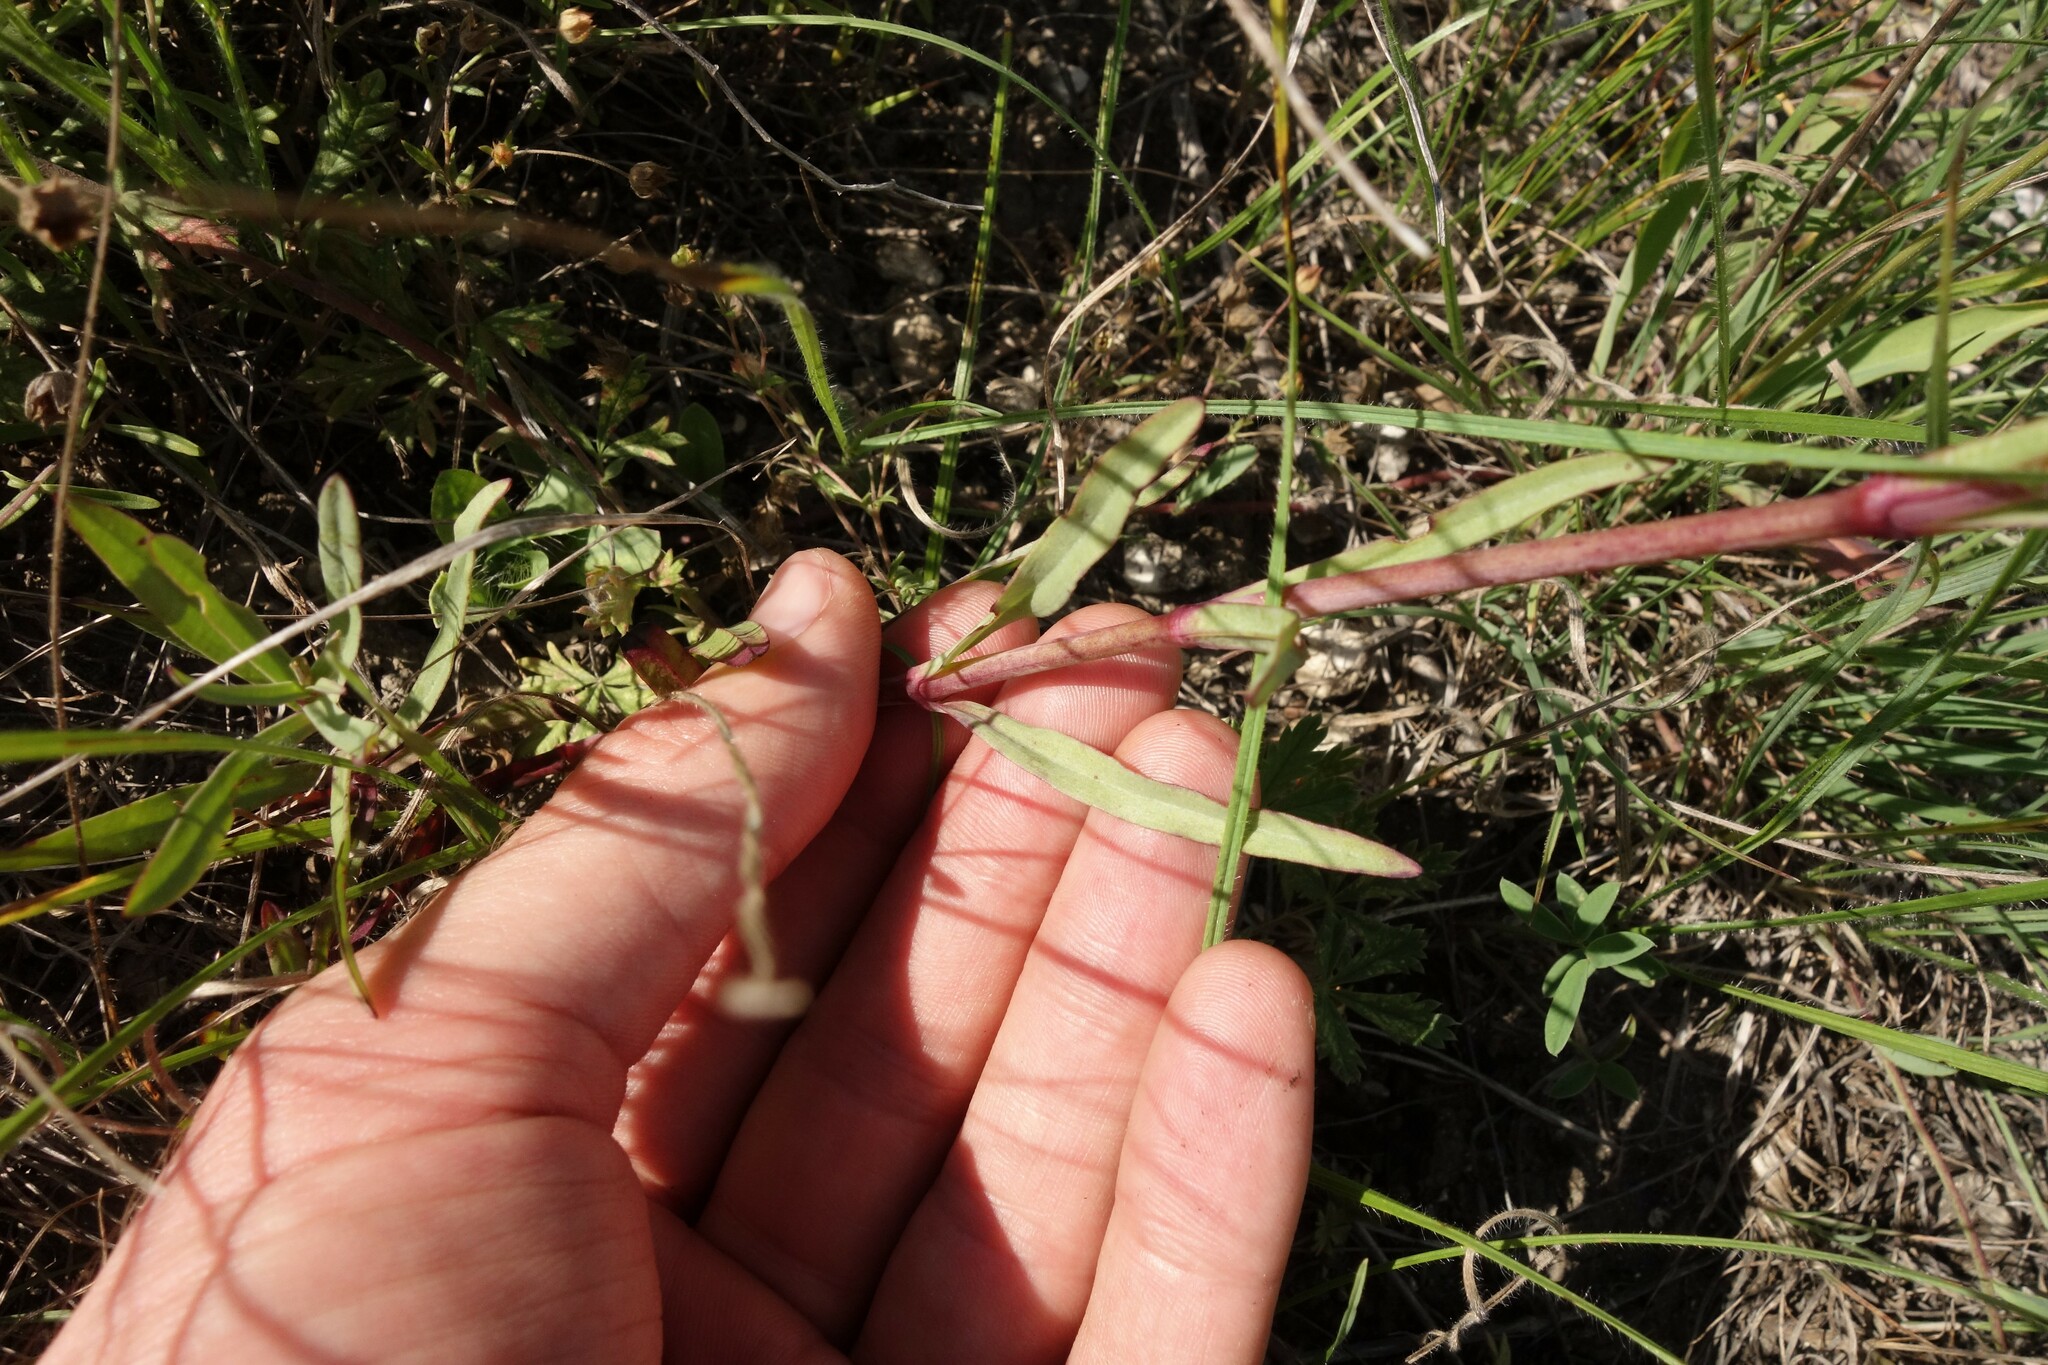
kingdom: Plantae
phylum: Tracheophyta
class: Magnoliopsida
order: Caryophyllales
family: Caryophyllaceae
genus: Gypsophila
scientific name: Gypsophila altissima
